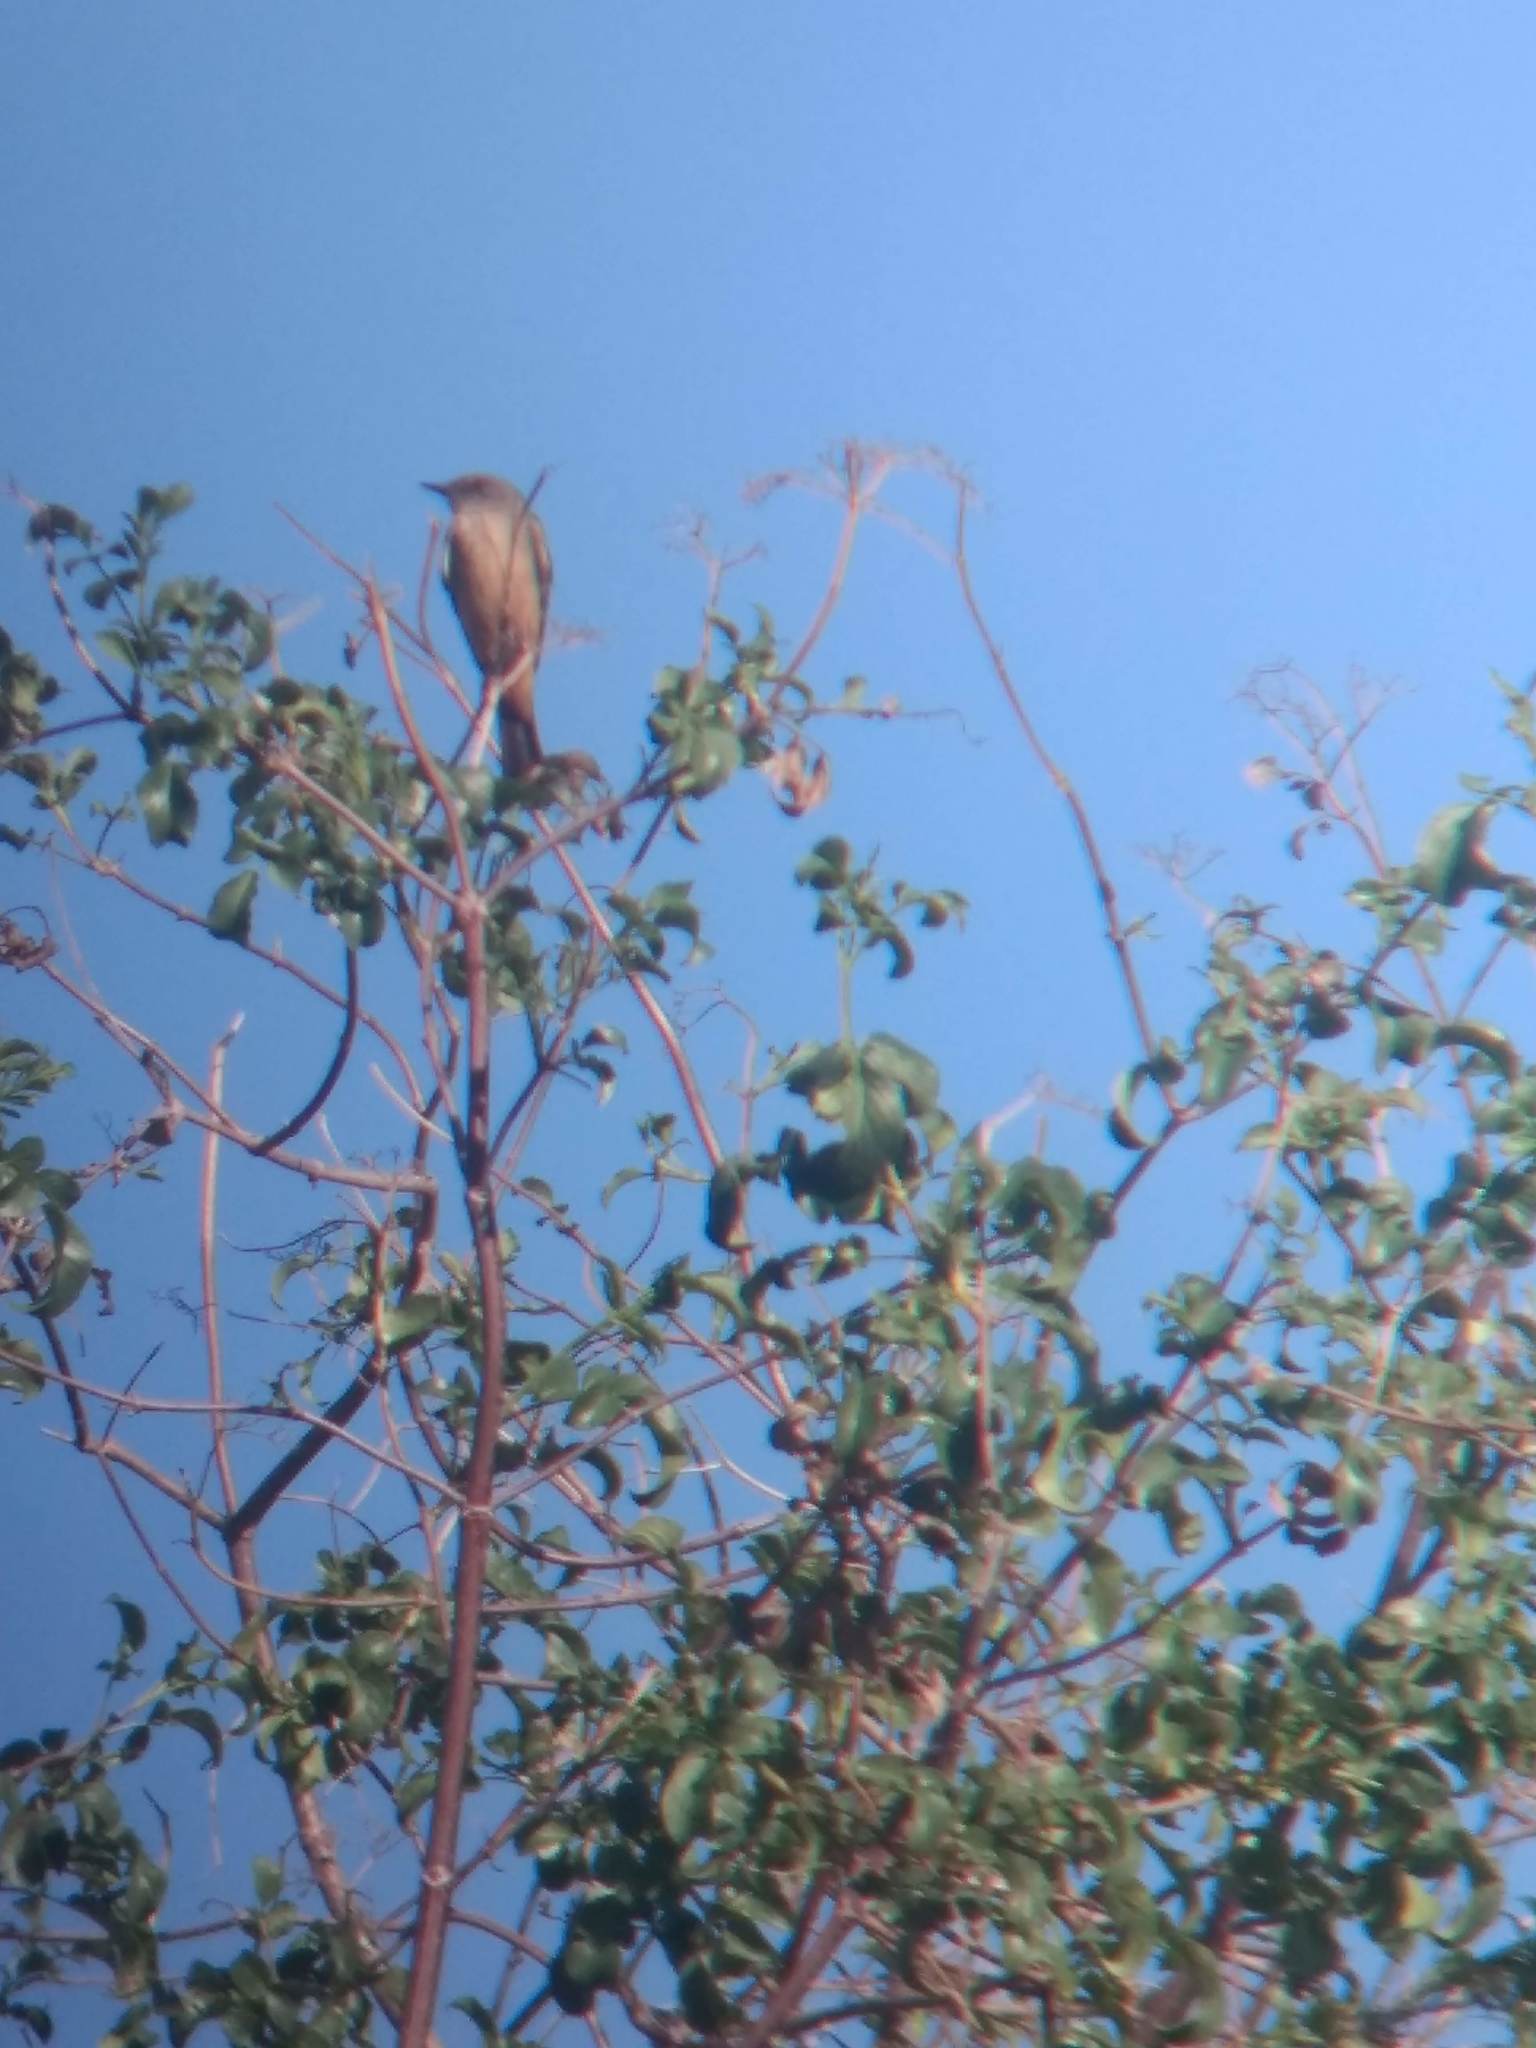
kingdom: Animalia
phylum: Chordata
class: Aves
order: Passeriformes
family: Tyrannidae
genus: Sayornis
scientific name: Sayornis saya
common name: Say's phoebe
